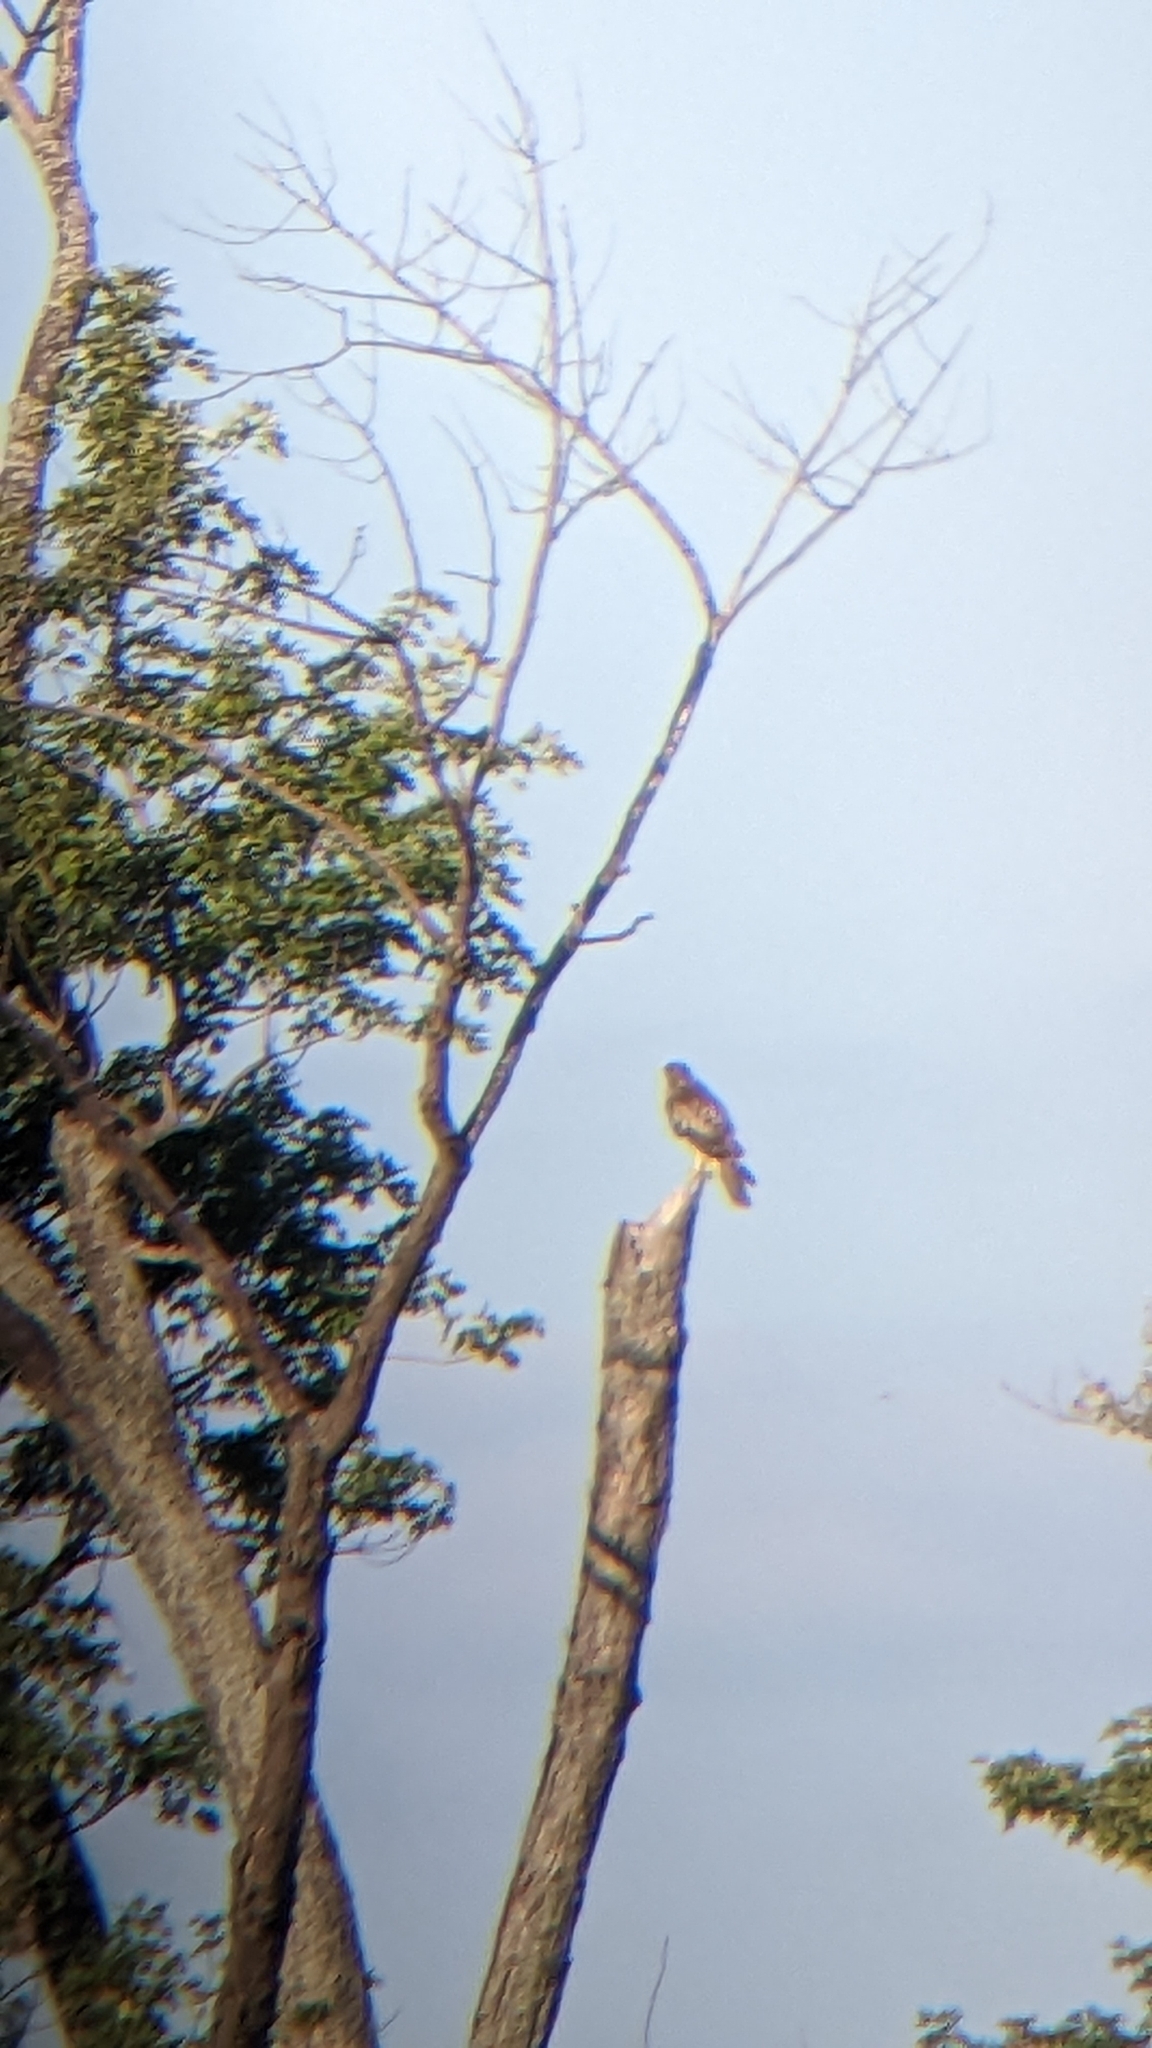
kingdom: Animalia
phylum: Chordata
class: Aves
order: Accipitriformes
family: Accipitridae
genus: Buteo
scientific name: Buteo jamaicensis
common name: Red-tailed hawk
